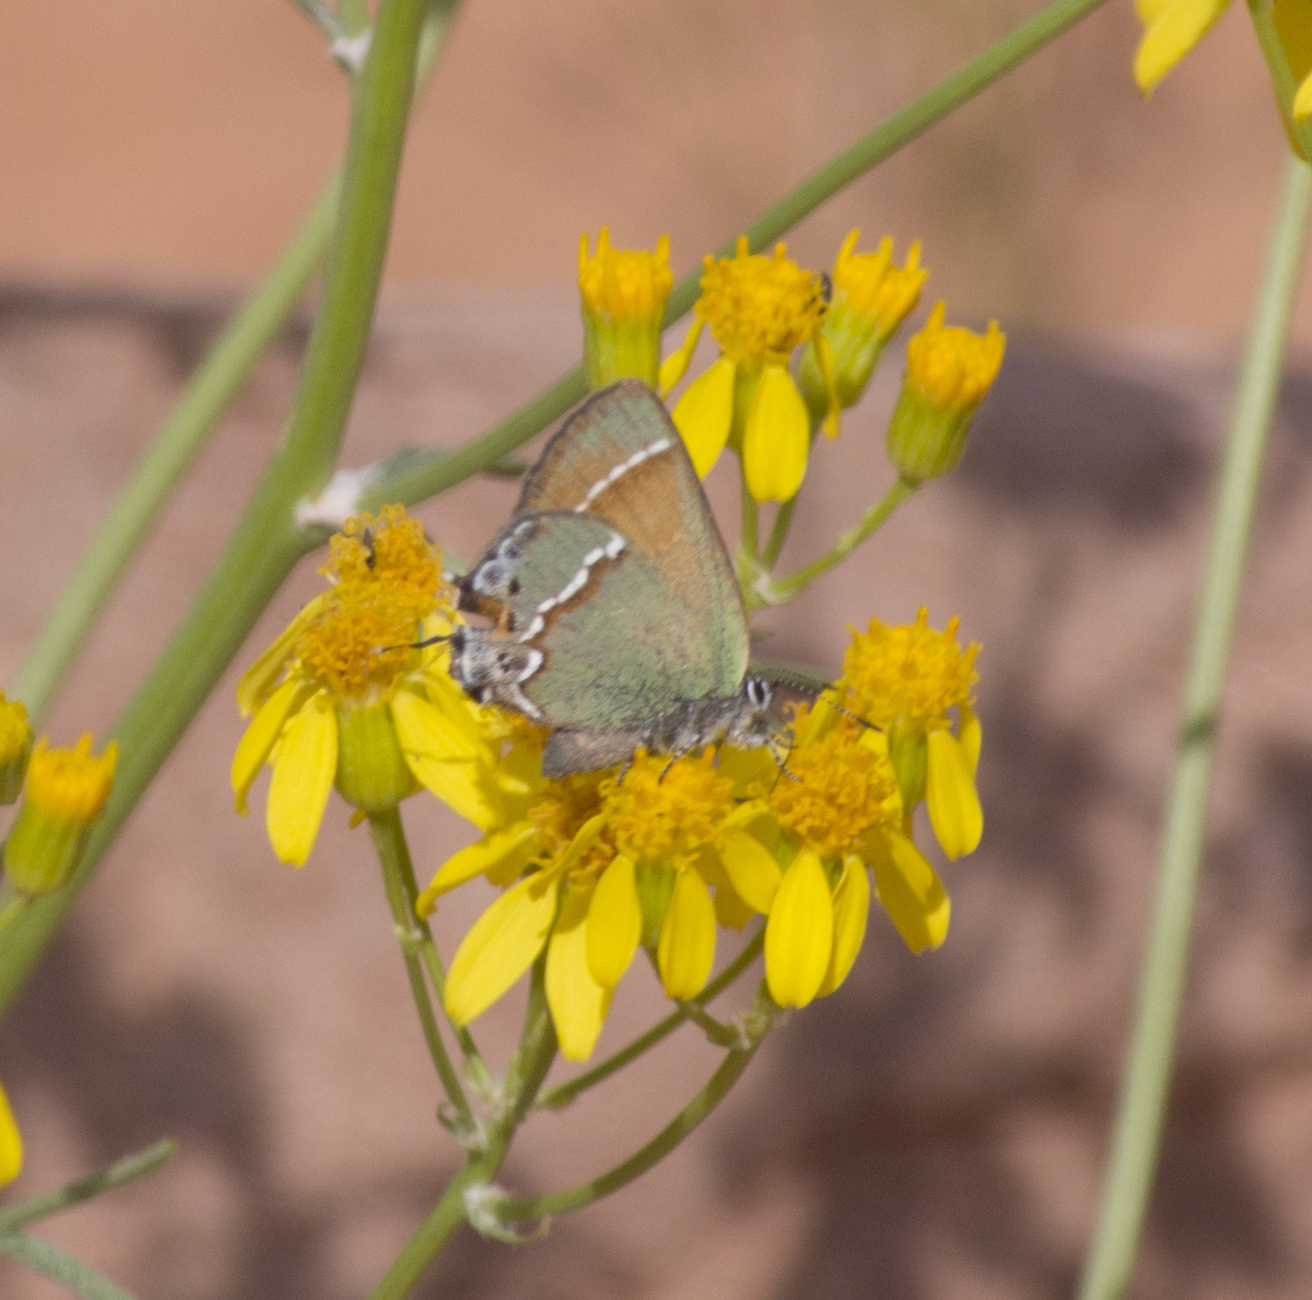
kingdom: Animalia
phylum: Arthropoda
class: Insecta
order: Lepidoptera
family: Lycaenidae
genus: Mitoura
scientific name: Mitoura siva
